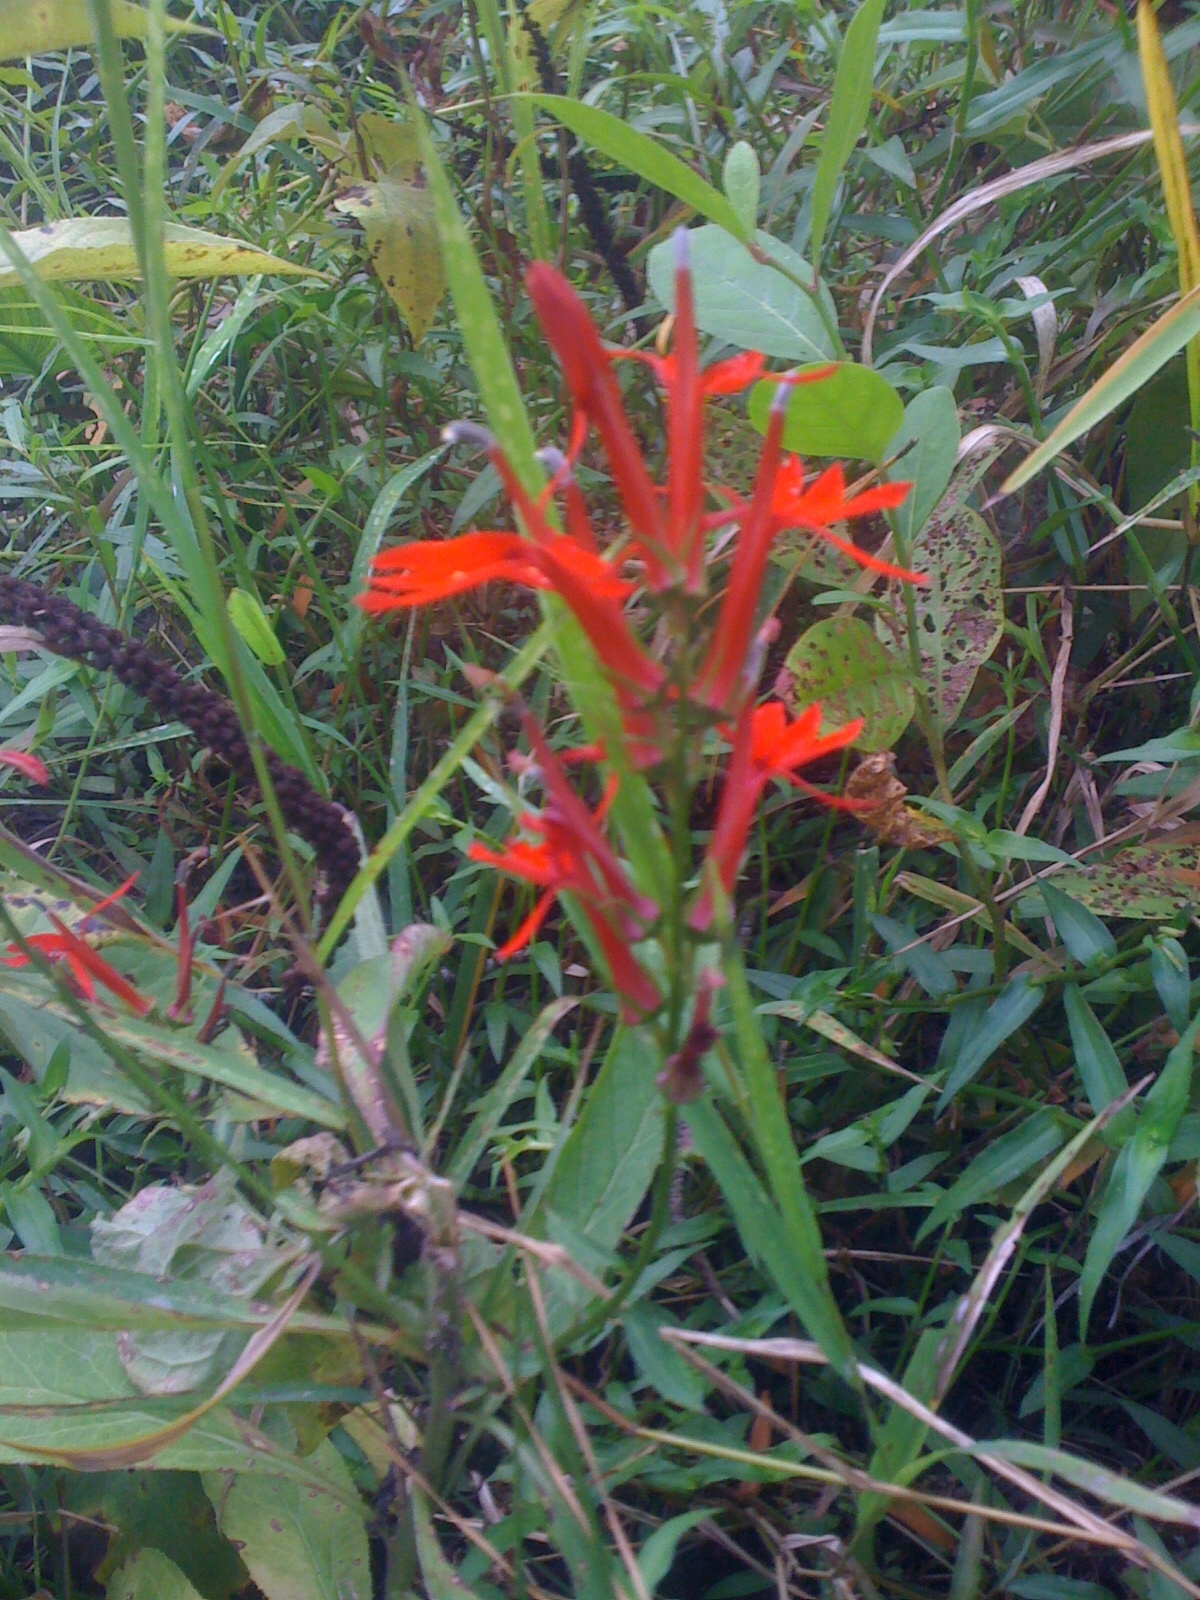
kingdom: Plantae
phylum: Tracheophyta
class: Magnoliopsida
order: Asterales
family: Campanulaceae
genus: Lobelia
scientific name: Lobelia cardinalis
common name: Cardinal flower
